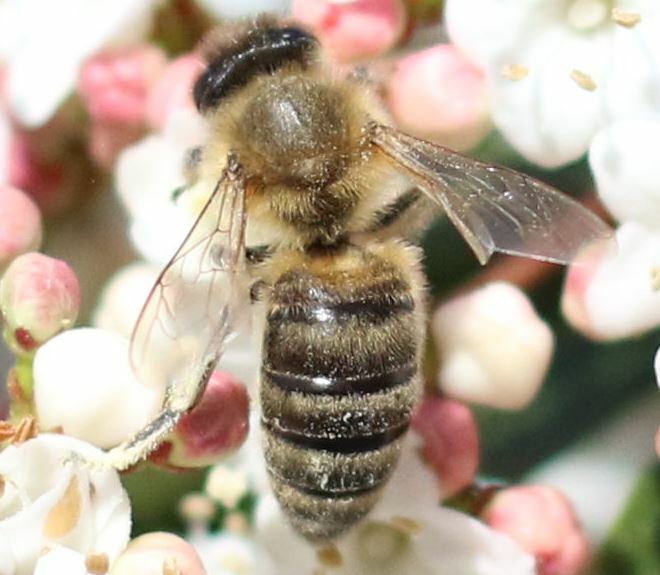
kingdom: Animalia
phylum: Arthropoda
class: Insecta
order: Hymenoptera
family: Apidae
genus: Apis
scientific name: Apis mellifera
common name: Honey bee
